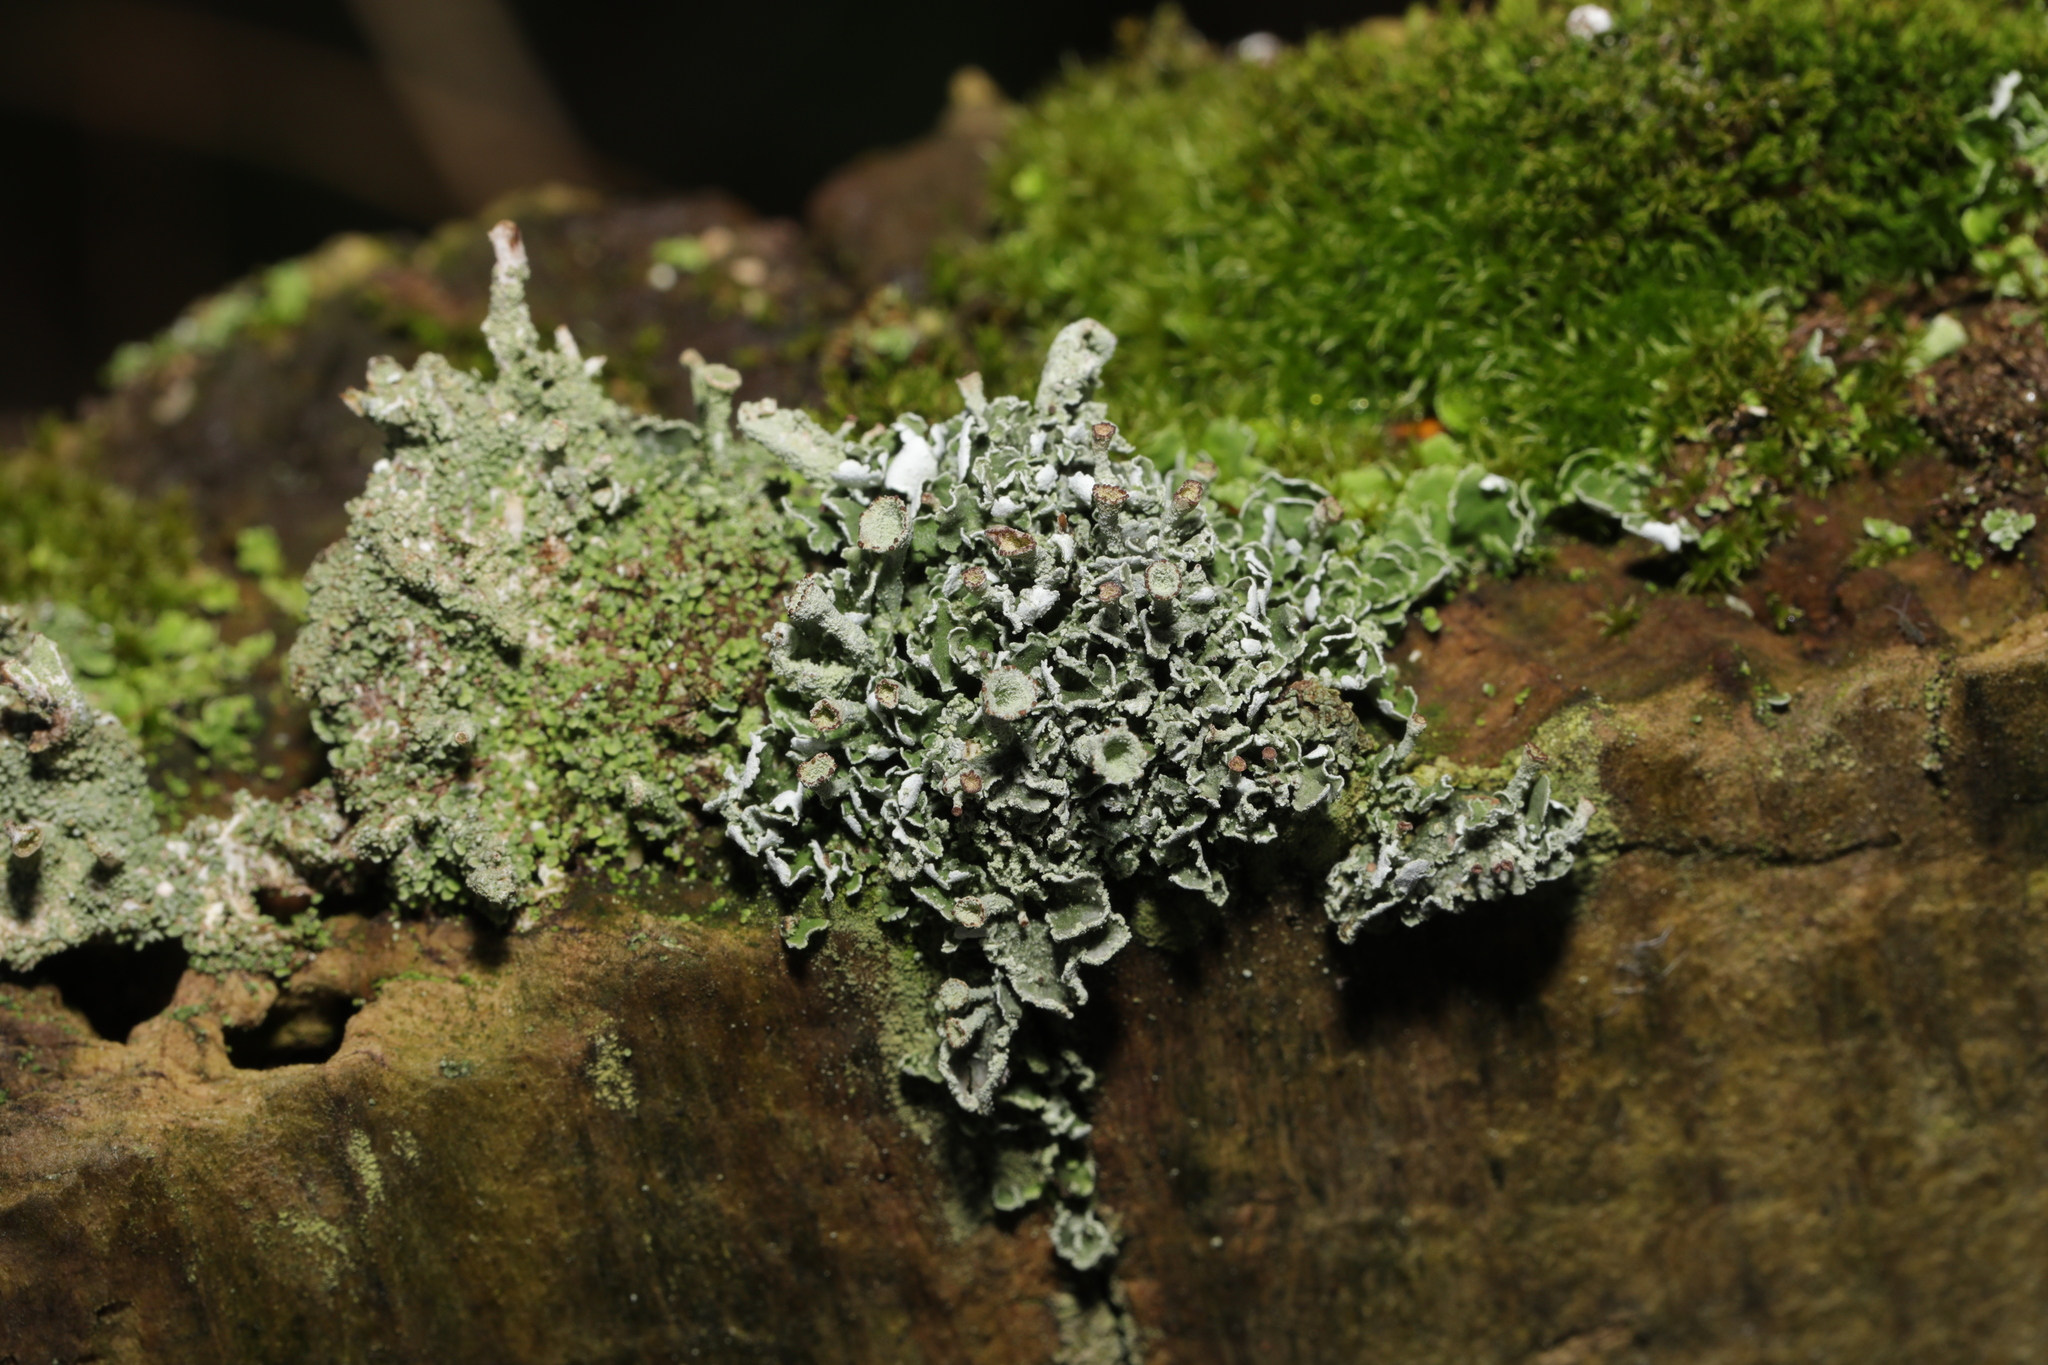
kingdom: Fungi
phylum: Ascomycota
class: Lecanoromycetes
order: Lecanorales
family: Cladoniaceae
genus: Cladonia
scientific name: Cladonia
